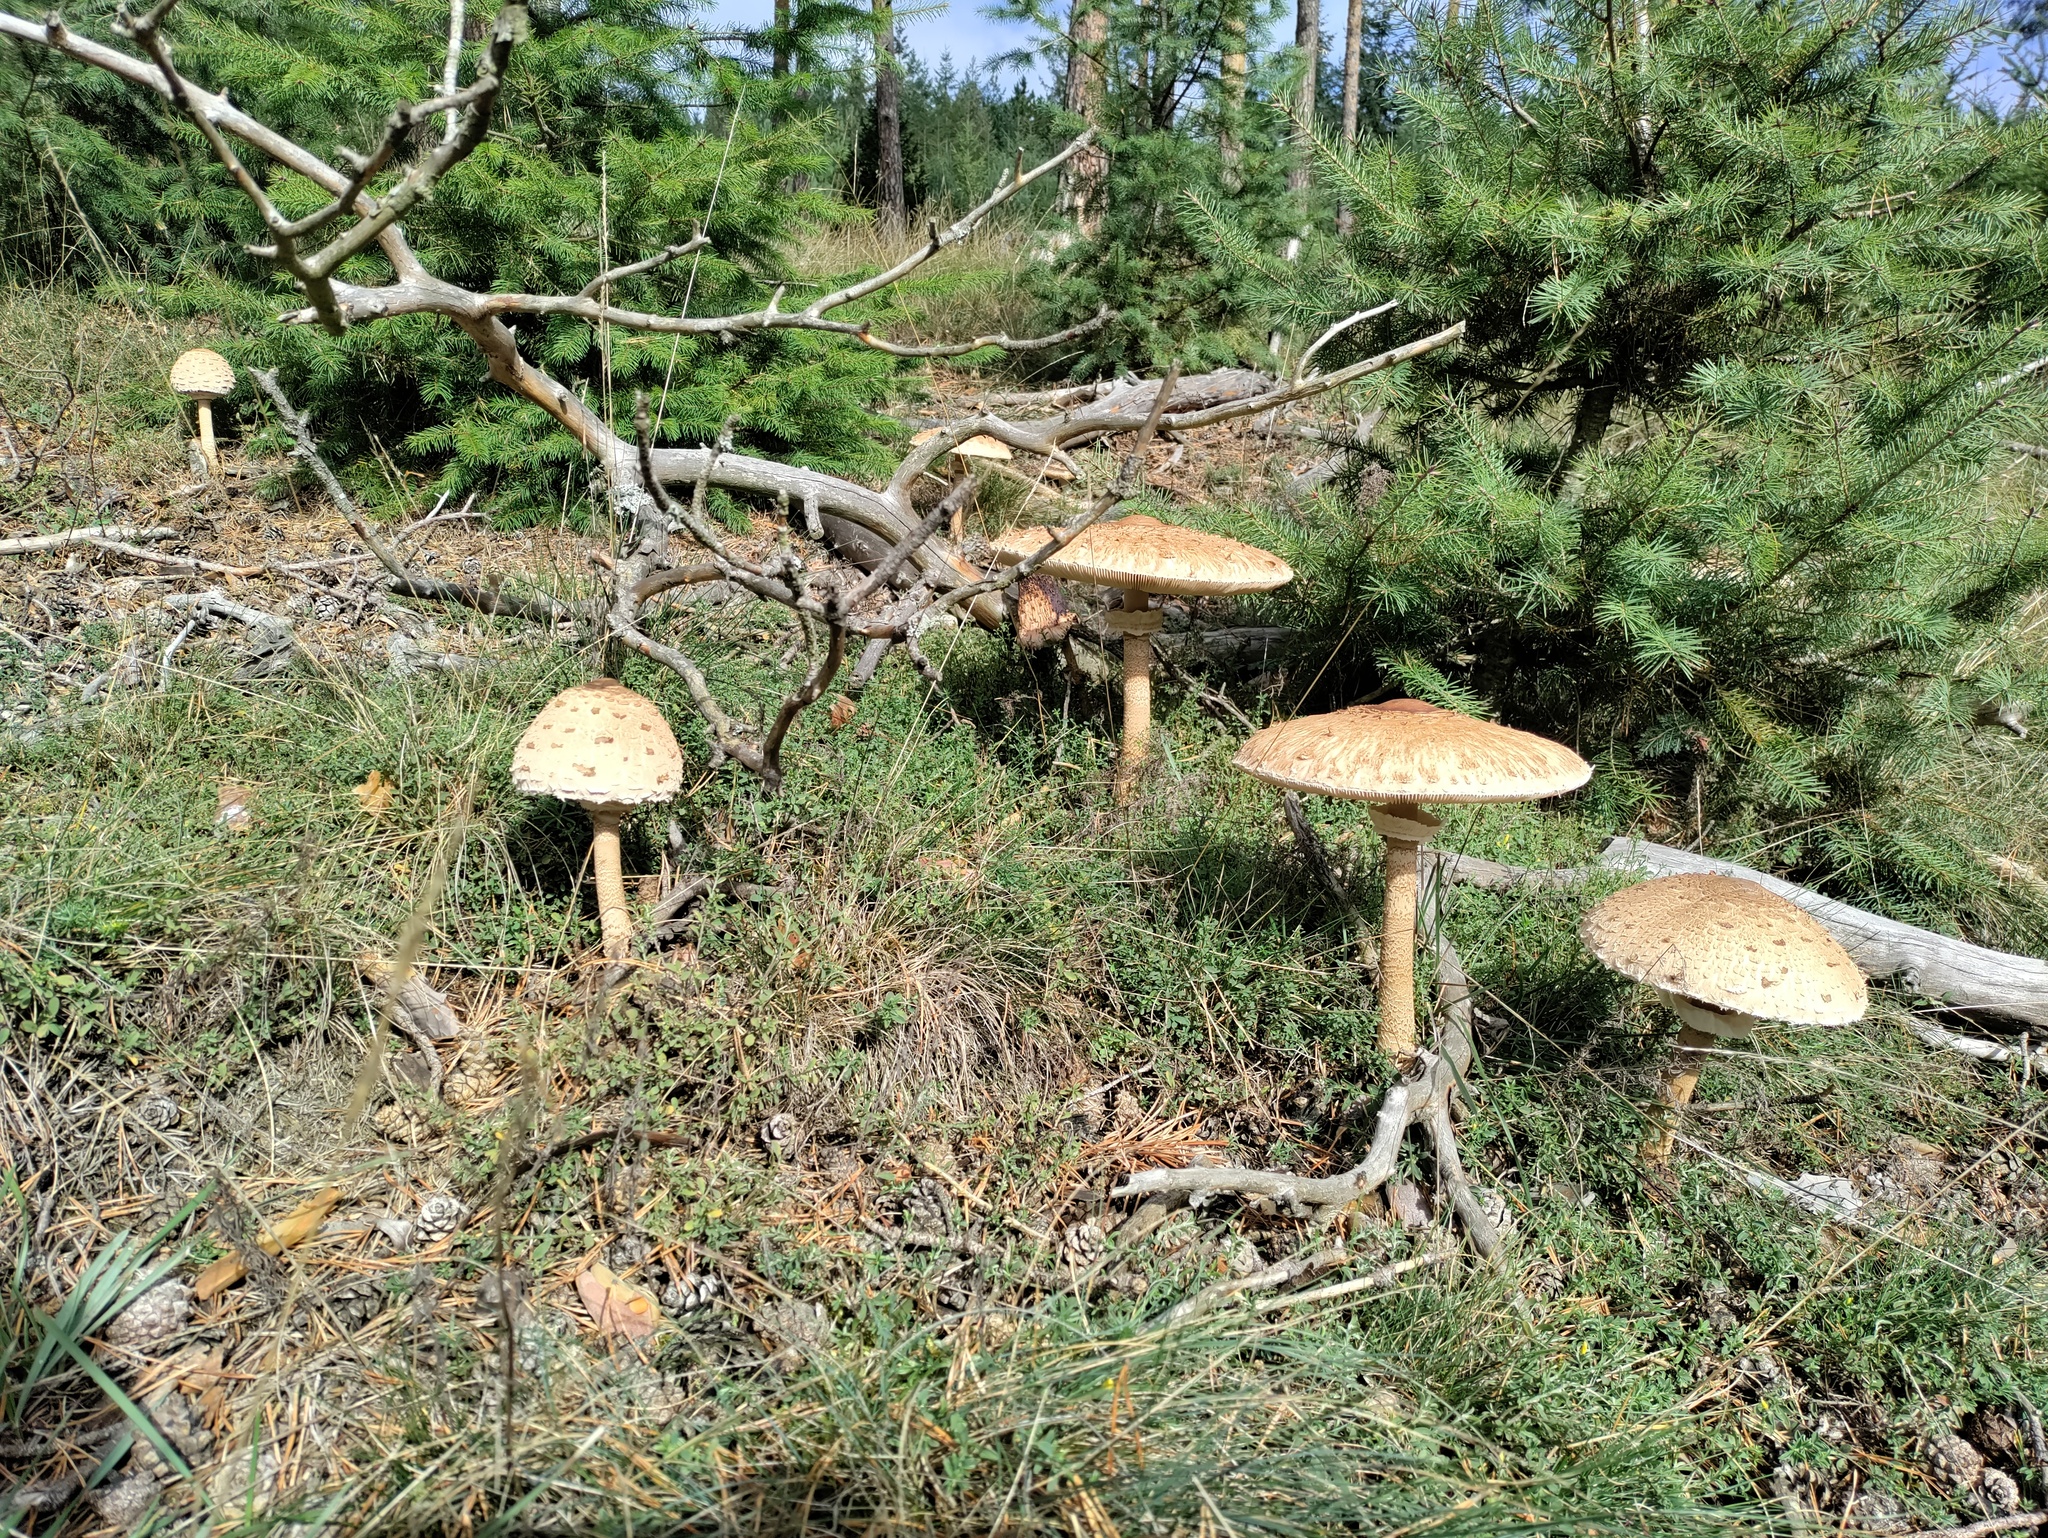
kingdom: Fungi
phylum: Basidiomycota
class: Agaricomycetes
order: Agaricales
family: Agaricaceae
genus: Macrolepiota
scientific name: Macrolepiota procera
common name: Parasol
